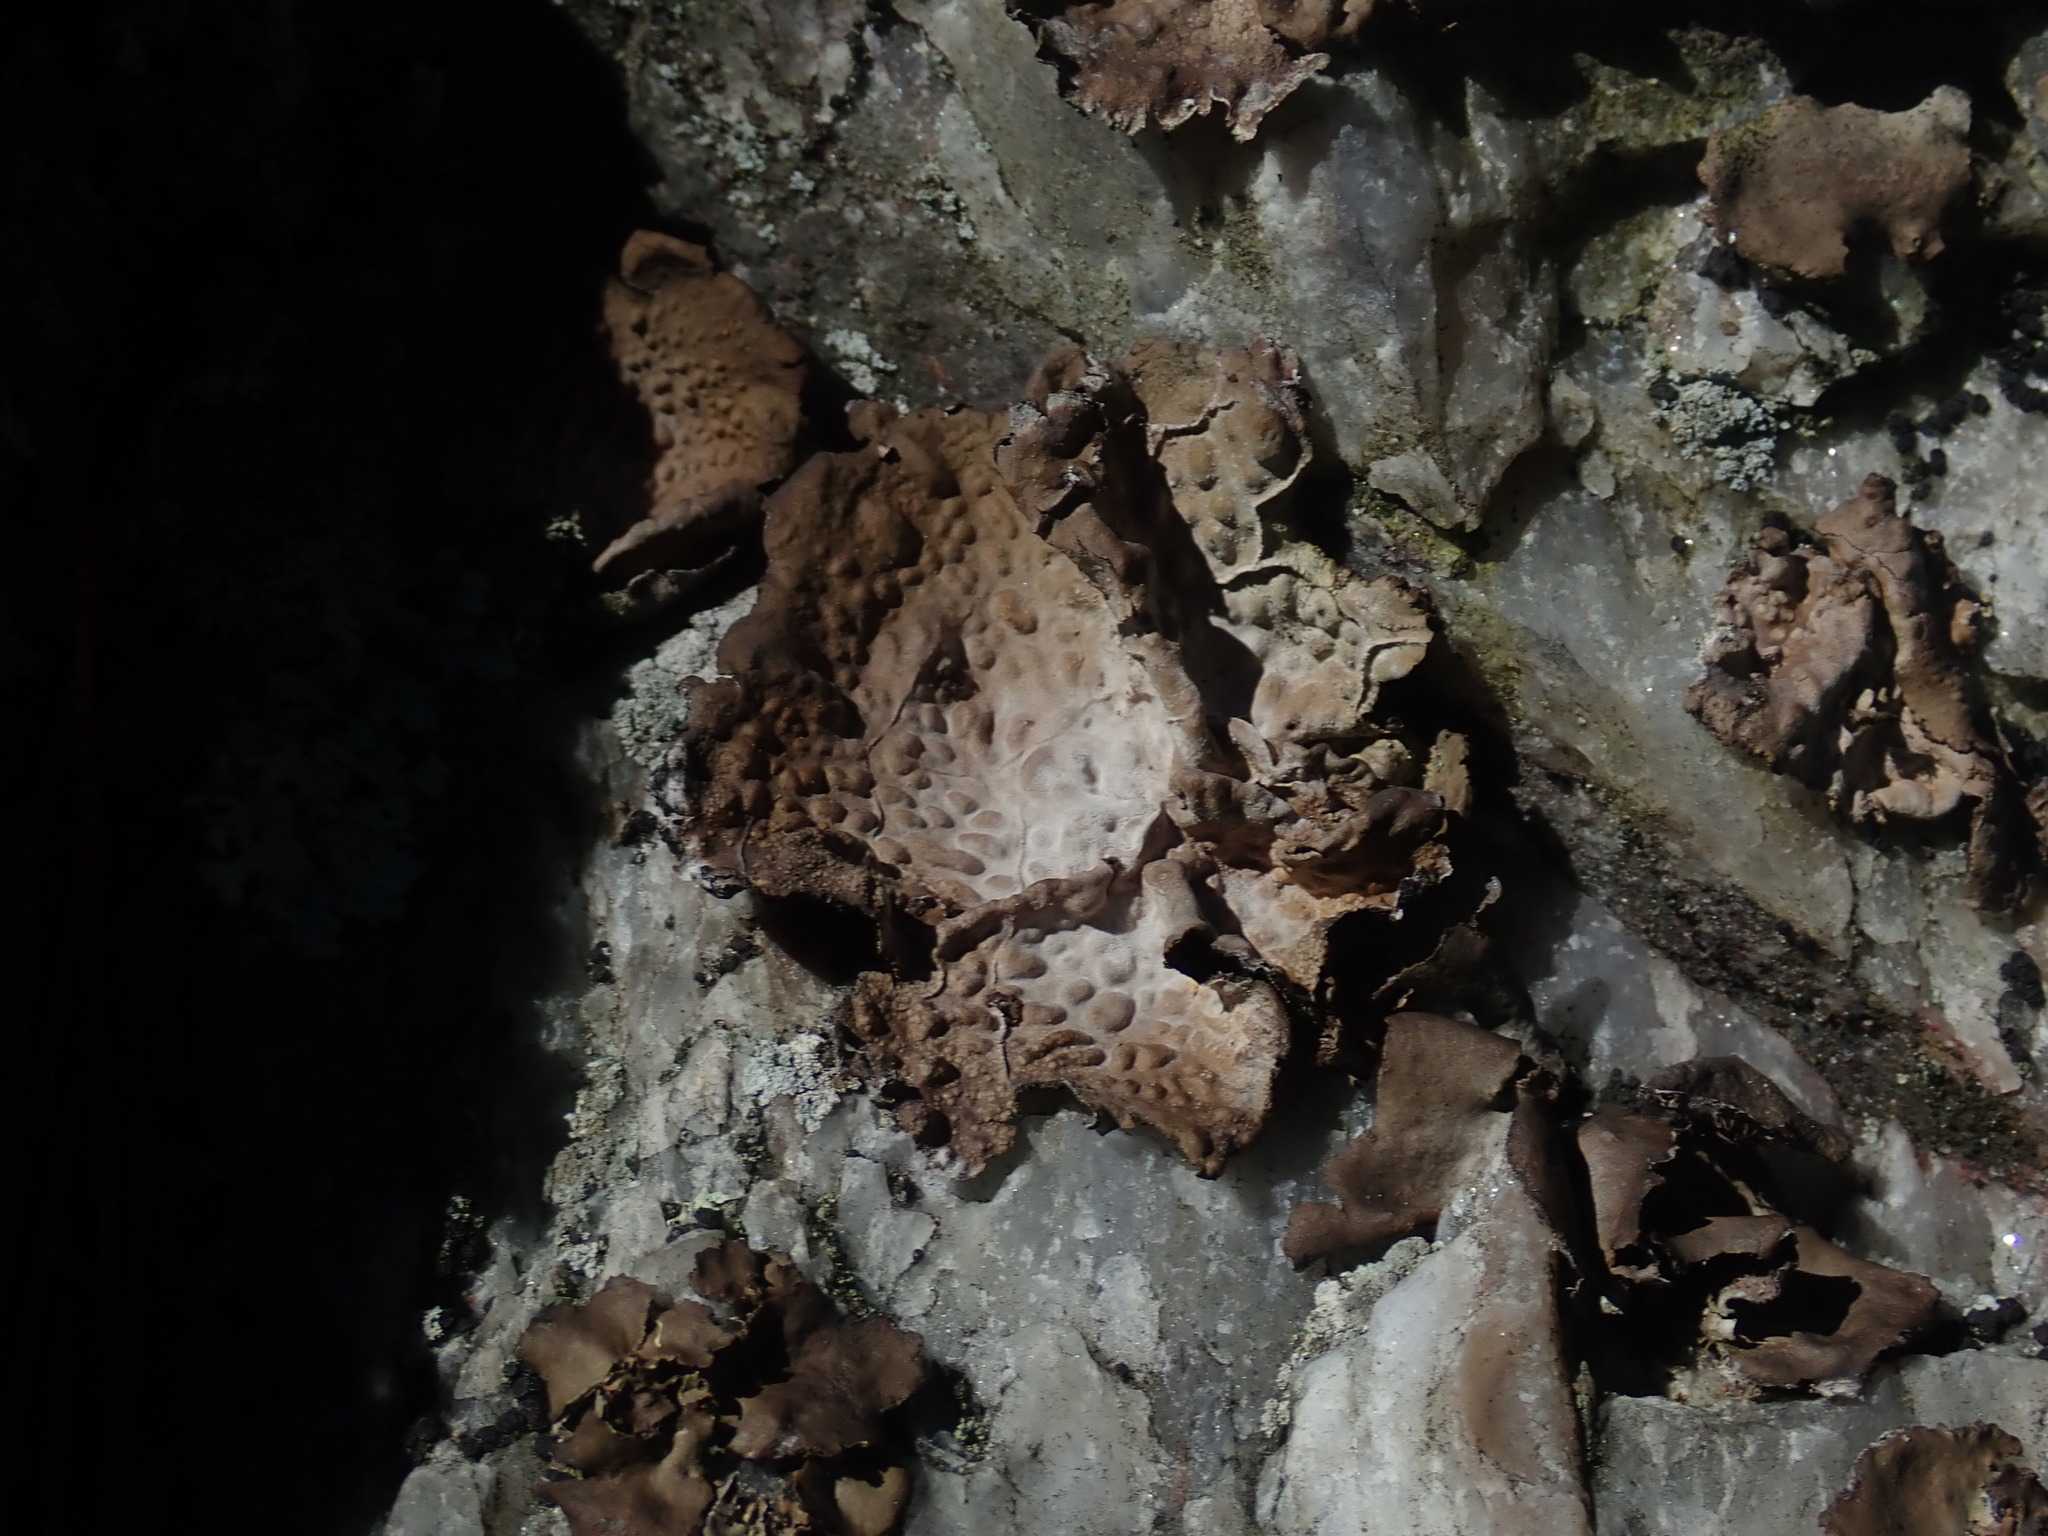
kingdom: Fungi
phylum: Ascomycota
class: Lecanoromycetes
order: Umbilicariales
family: Umbilicariaceae
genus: Lasallia
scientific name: Lasallia papulosa
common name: Common toadskin lichen
